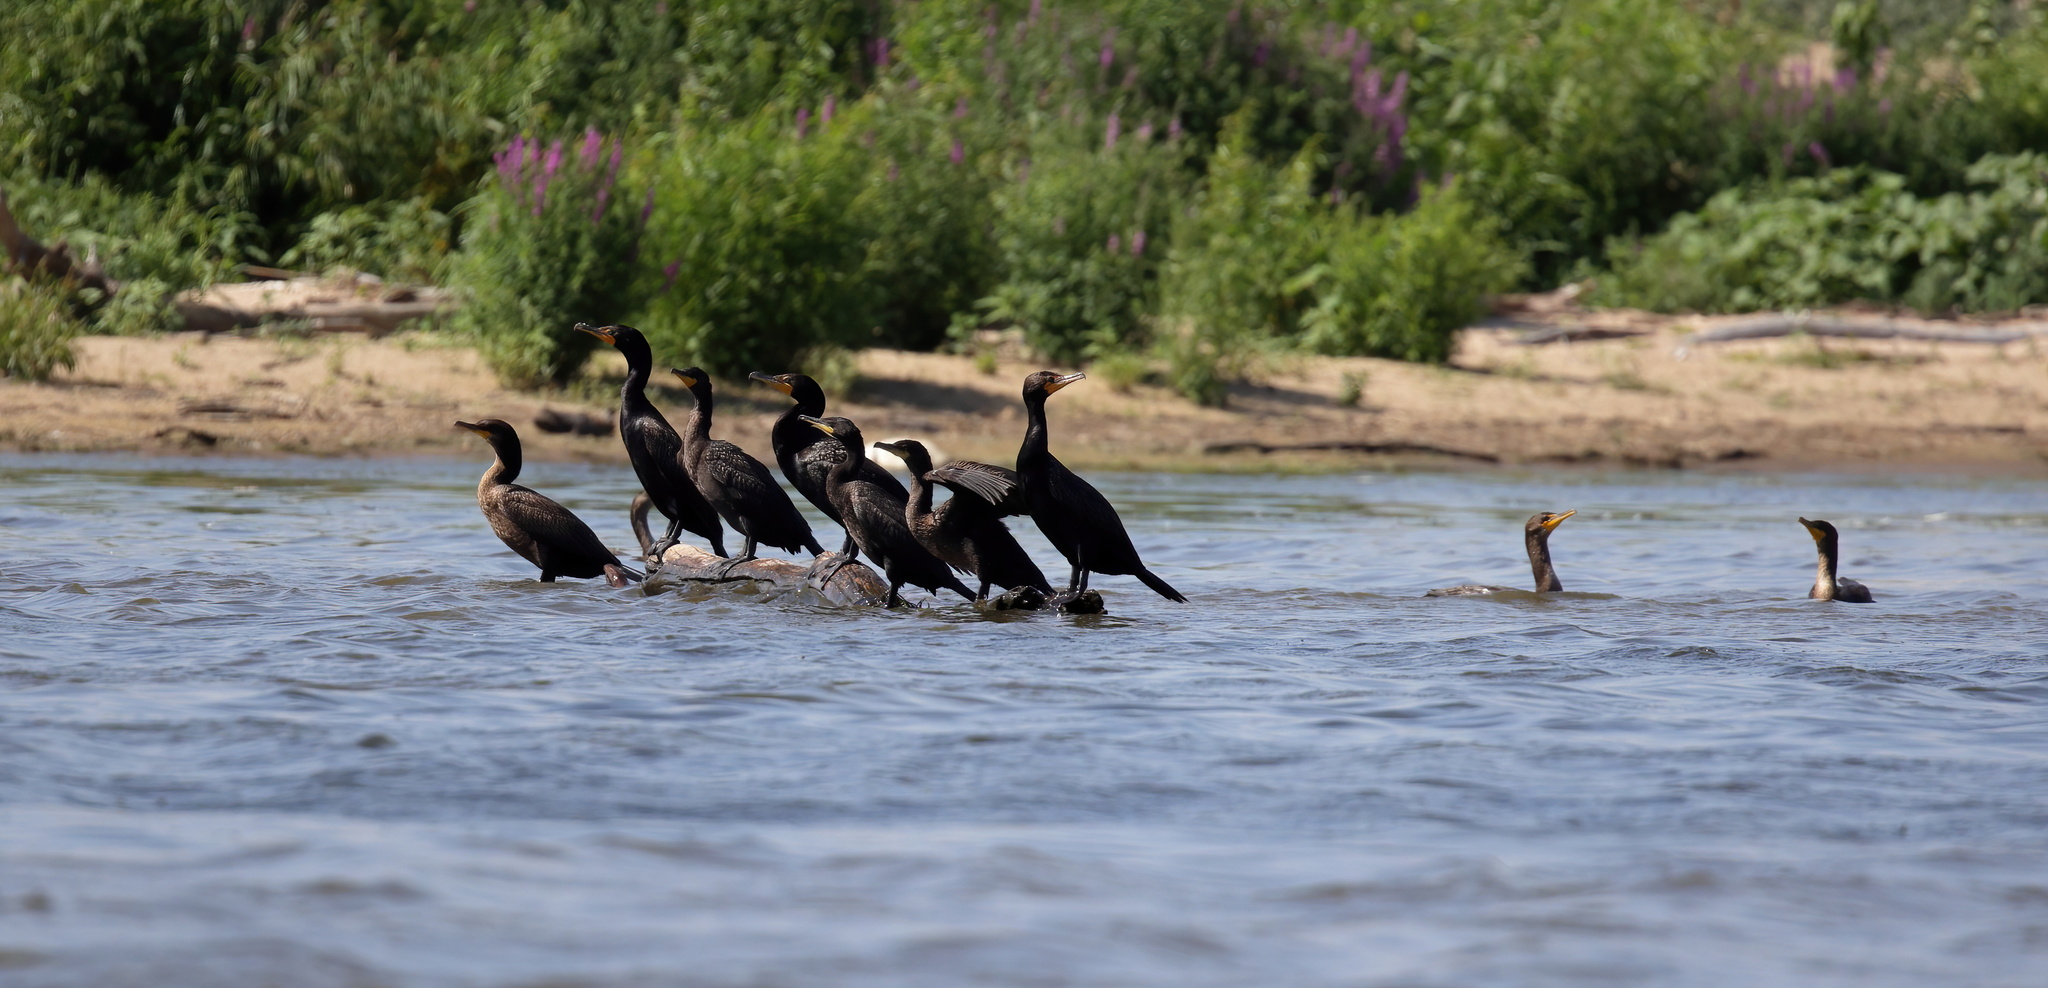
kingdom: Animalia
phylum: Chordata
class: Aves
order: Suliformes
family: Phalacrocoracidae
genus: Phalacrocorax
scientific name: Phalacrocorax auritus
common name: Double-crested cormorant
